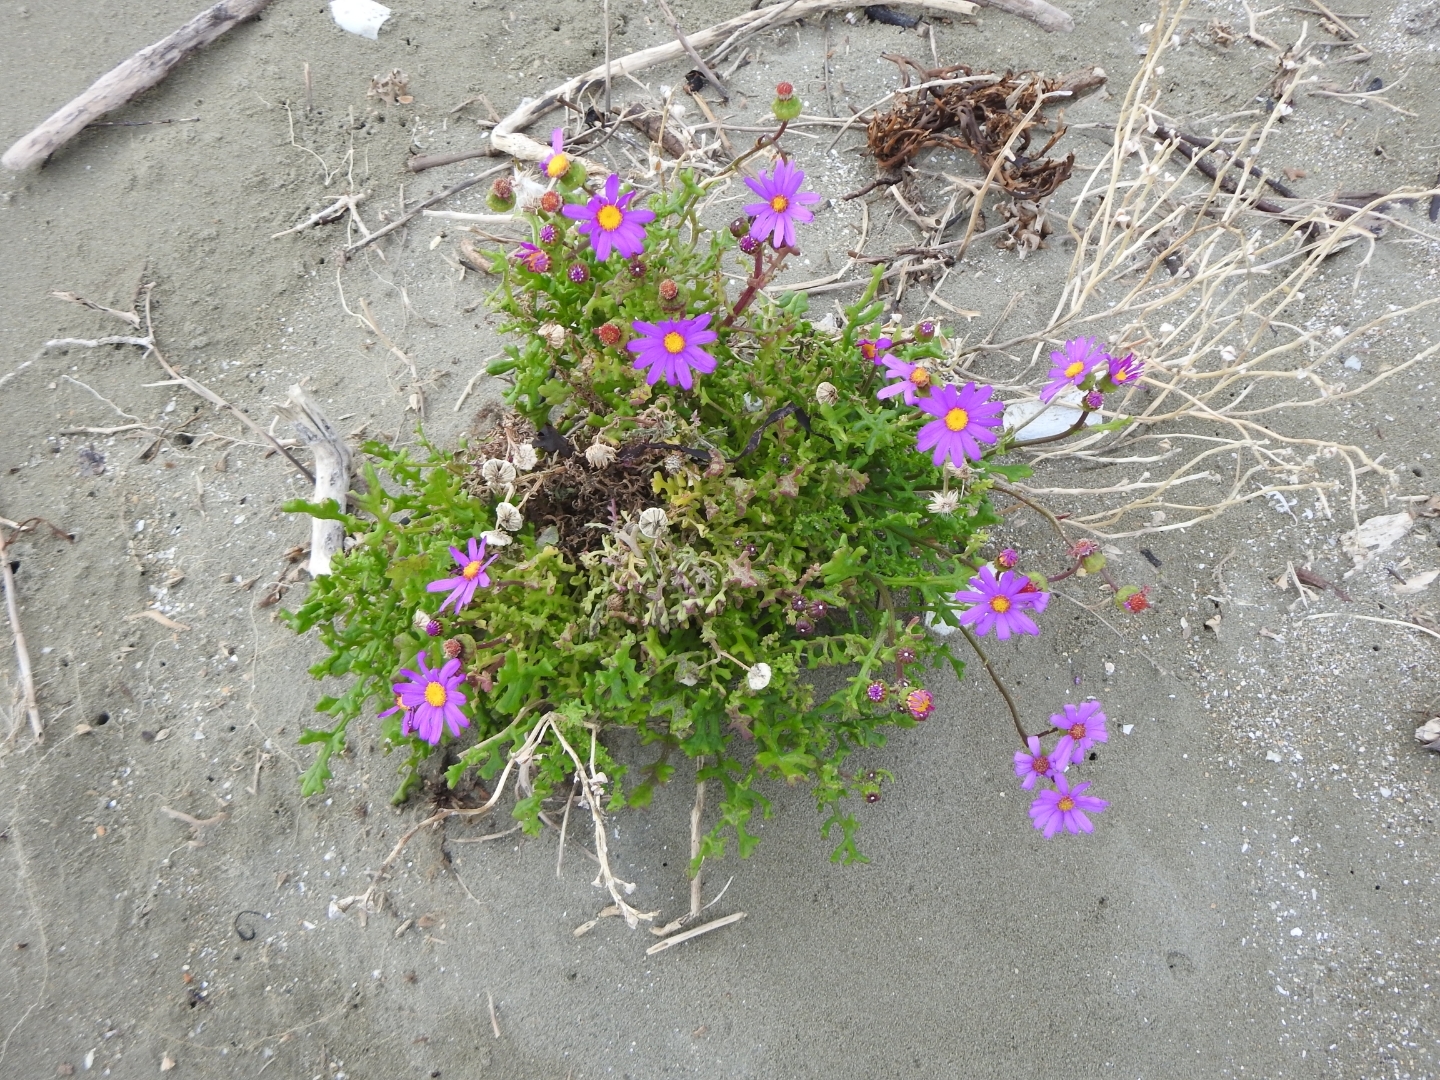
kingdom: Plantae
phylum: Tracheophyta
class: Magnoliopsida
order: Asterales
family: Asteraceae
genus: Senecio
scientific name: Senecio elegans
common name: Purple groundsel
